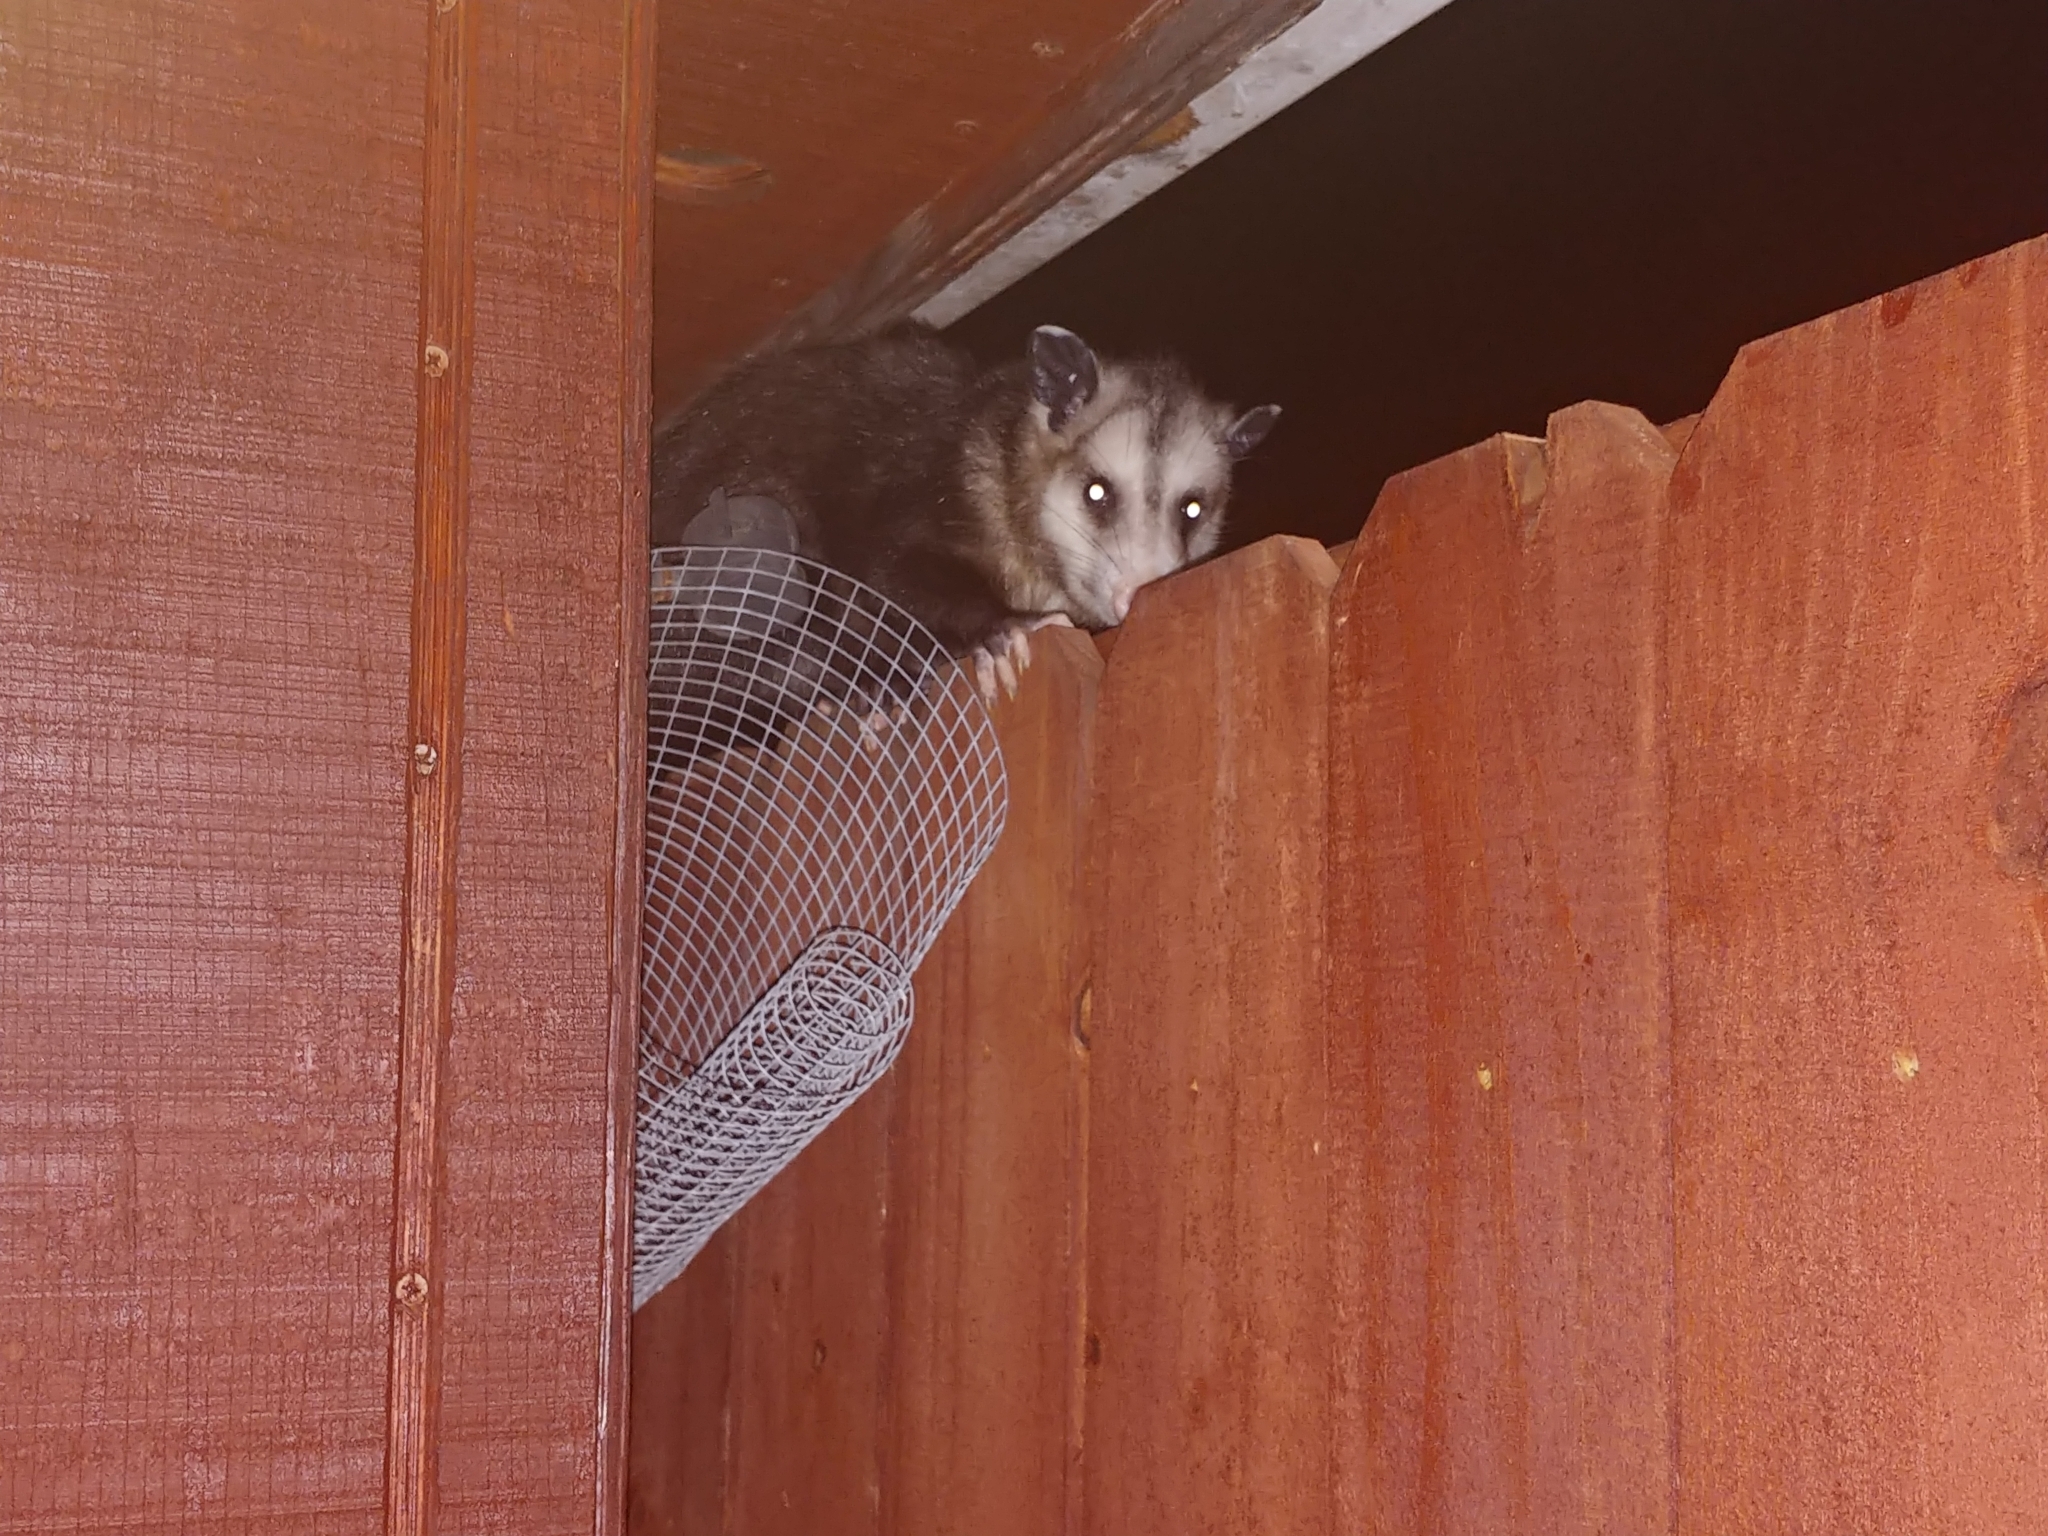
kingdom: Animalia
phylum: Chordata
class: Mammalia
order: Didelphimorphia
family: Didelphidae
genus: Didelphis
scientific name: Didelphis virginiana
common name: Virginia opossum
